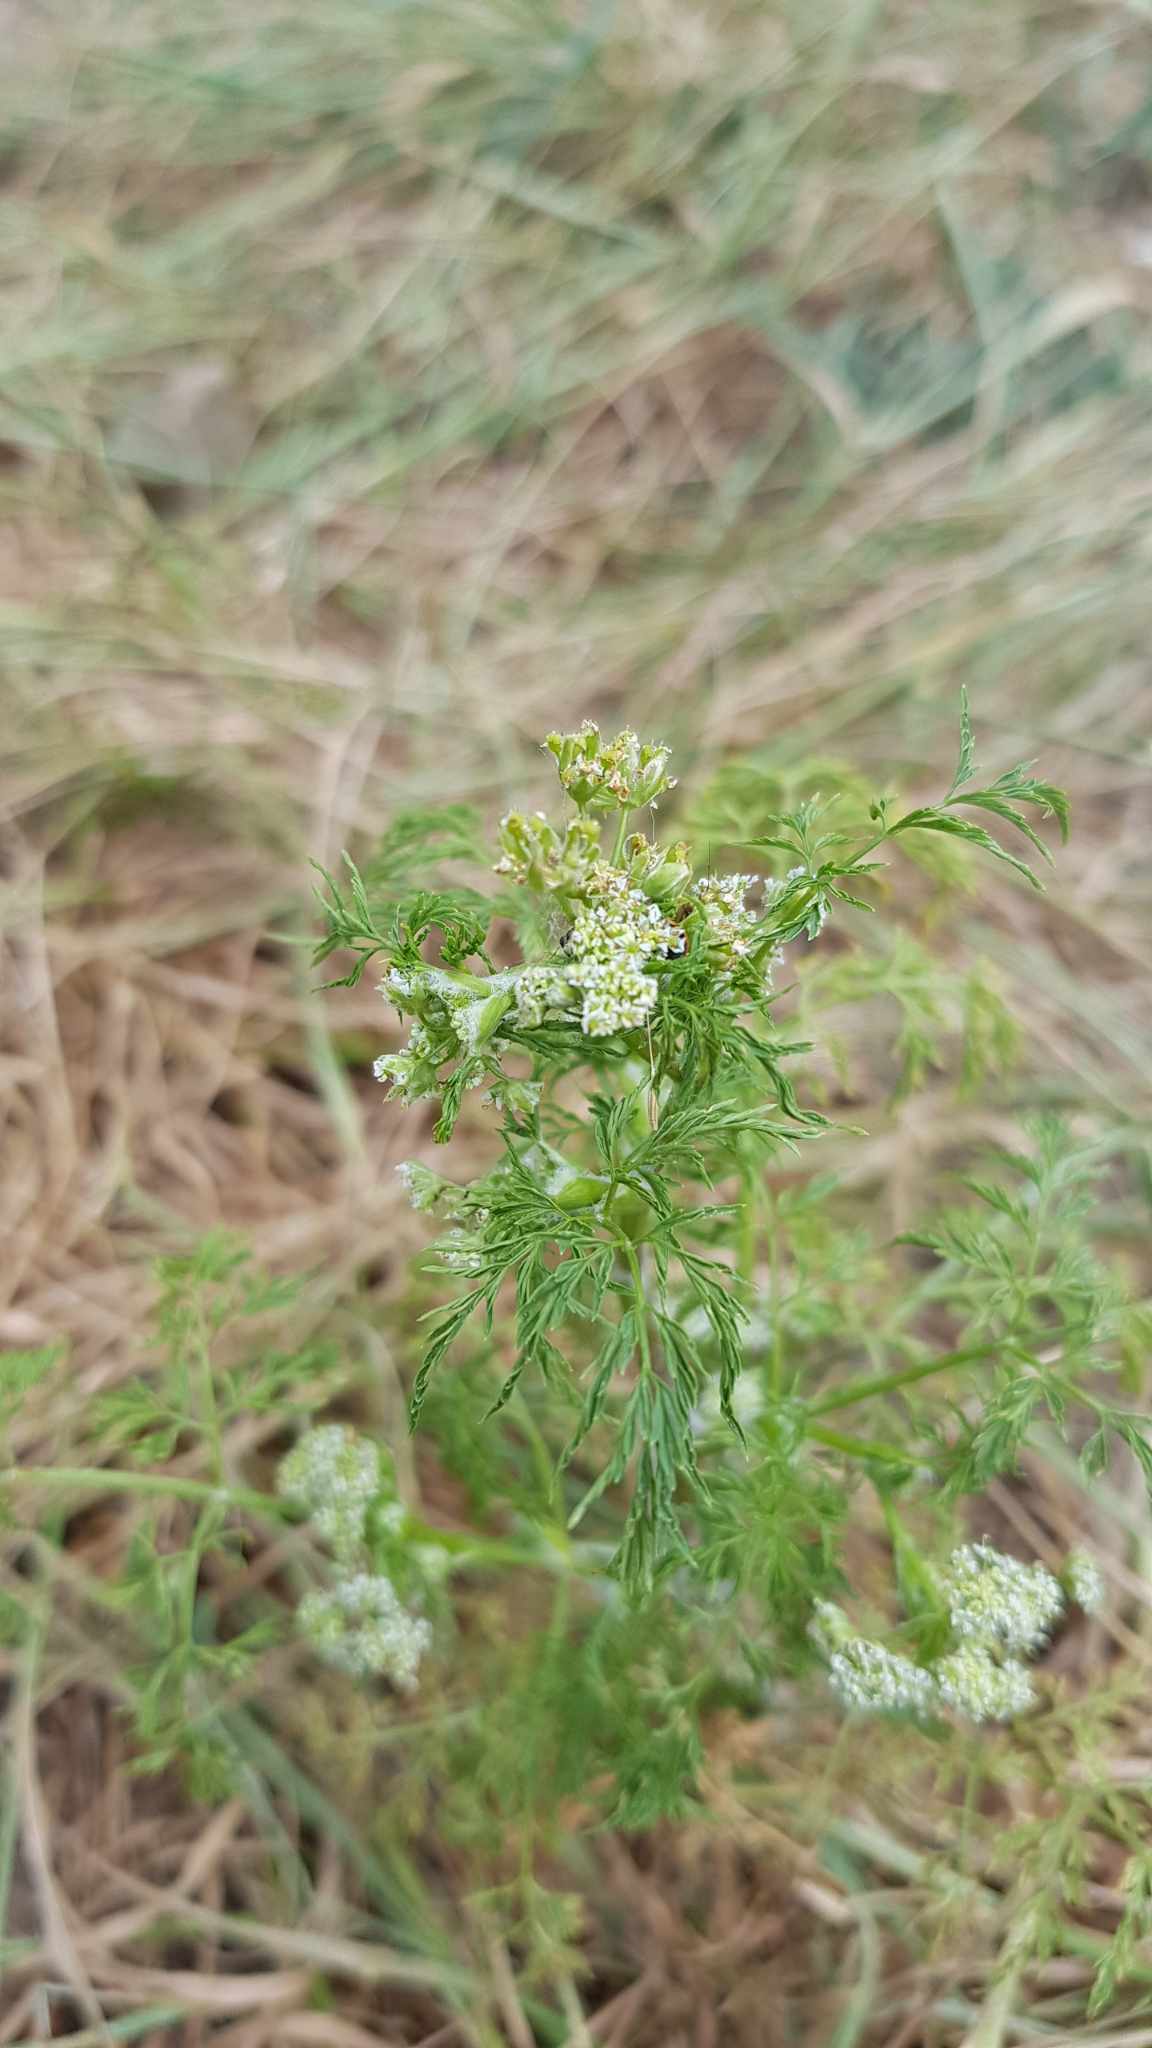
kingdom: Plantae
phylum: Tracheophyta
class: Magnoliopsida
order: Apiales
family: Apiaceae
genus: Sphallerocarpus
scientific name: Sphallerocarpus gracilis
